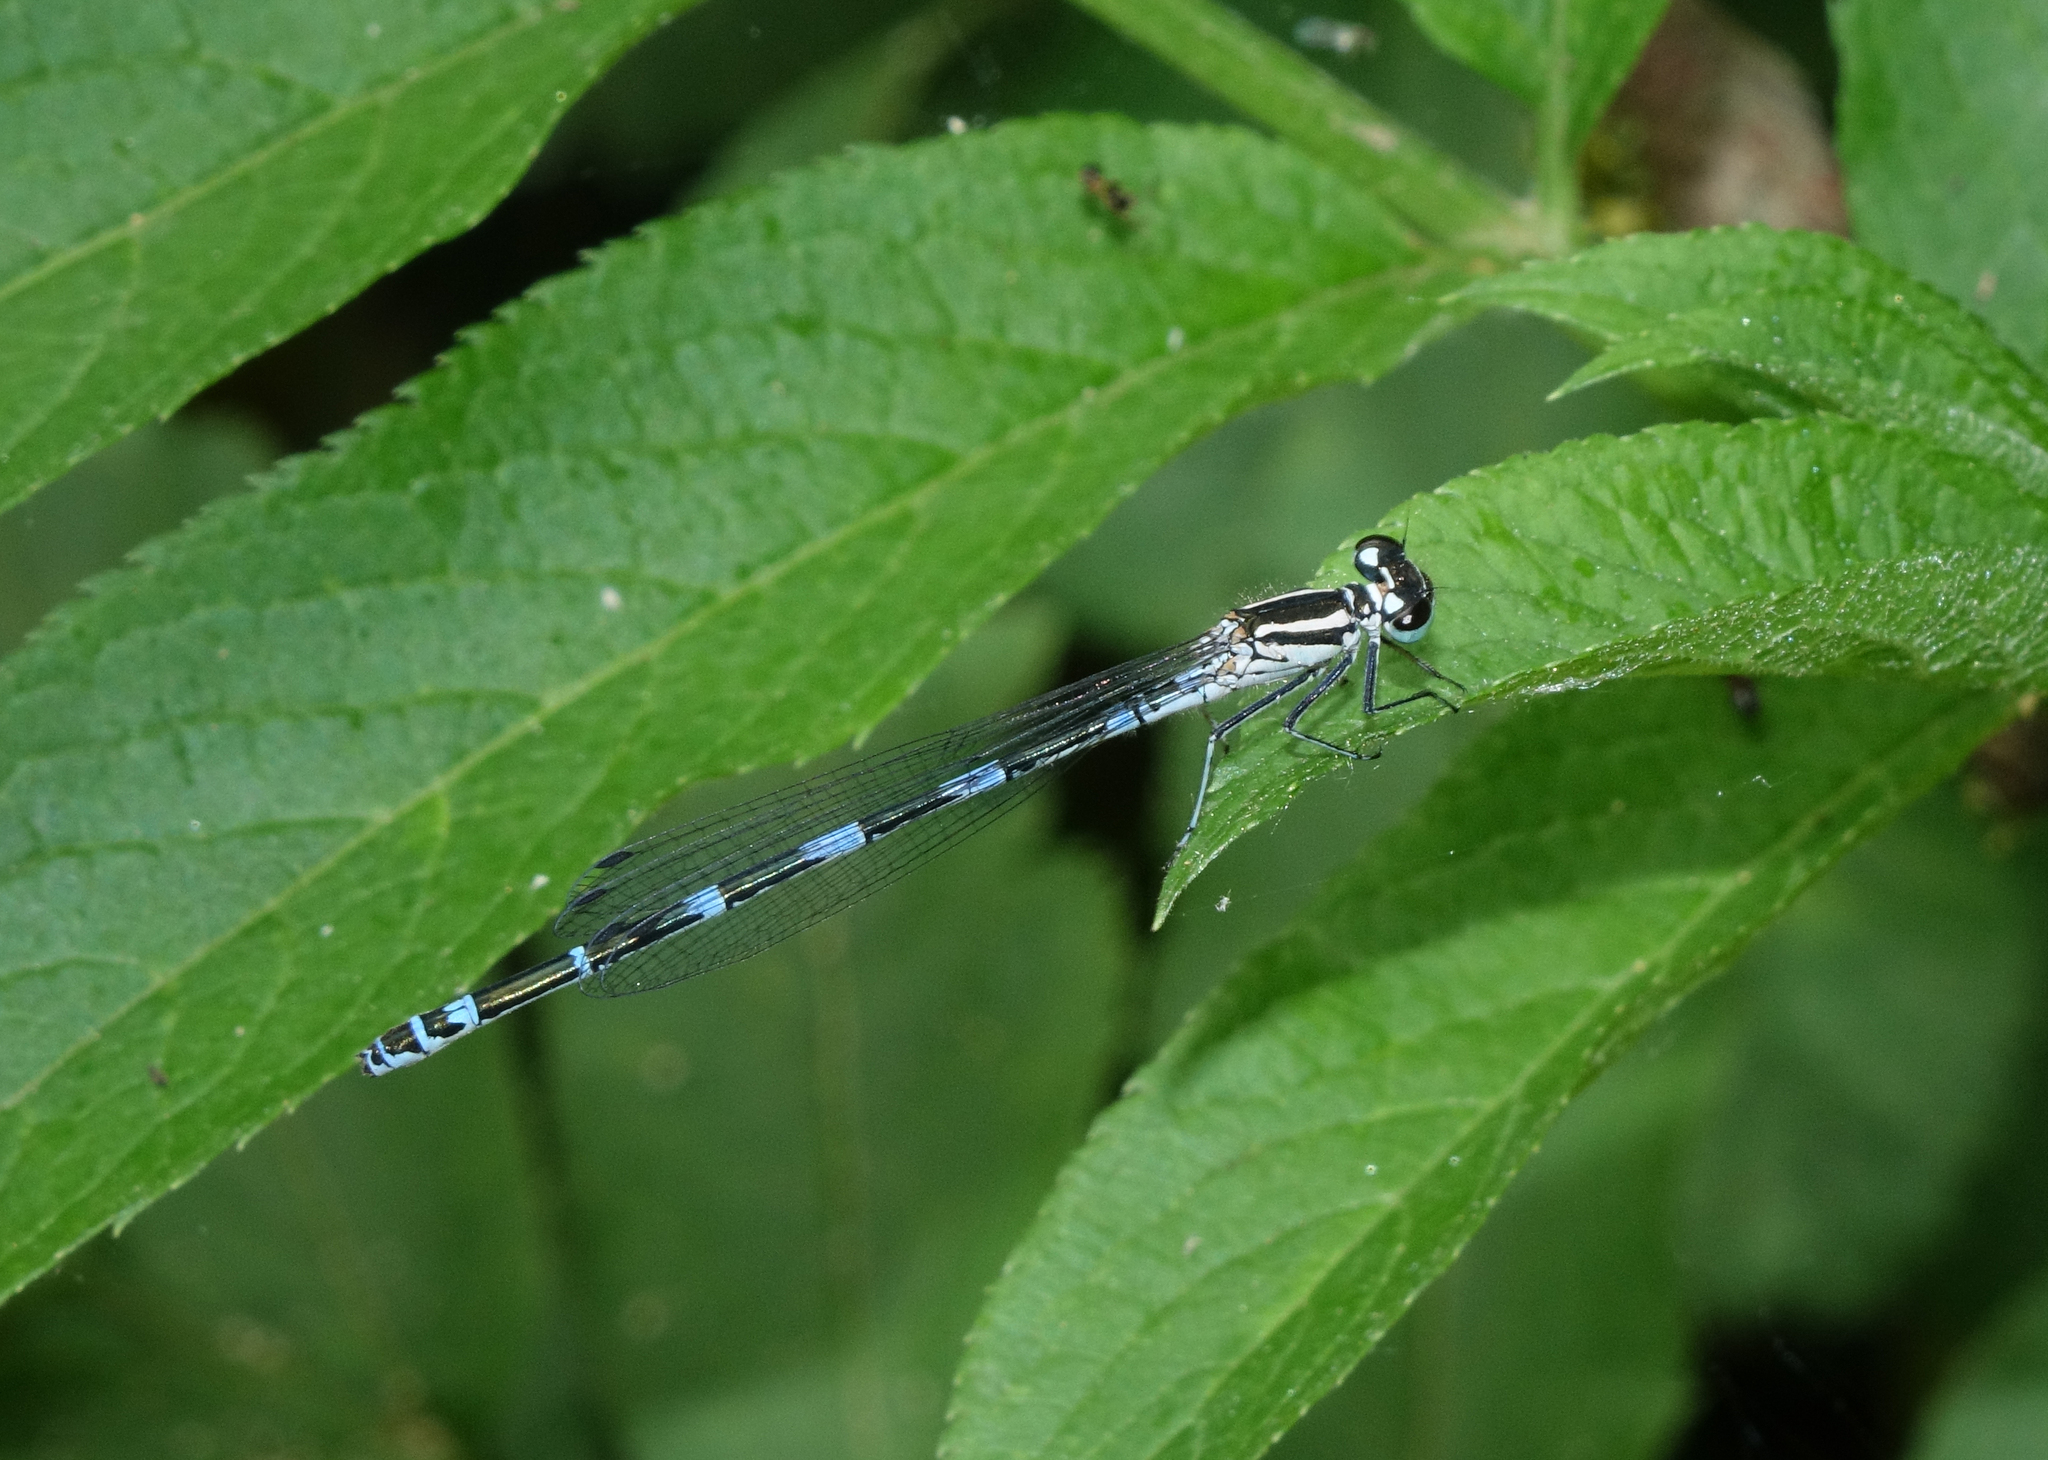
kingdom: Animalia
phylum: Arthropoda
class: Insecta
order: Odonata
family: Coenagrionidae
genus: Coenagrion
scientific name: Coenagrion australocaspicum
